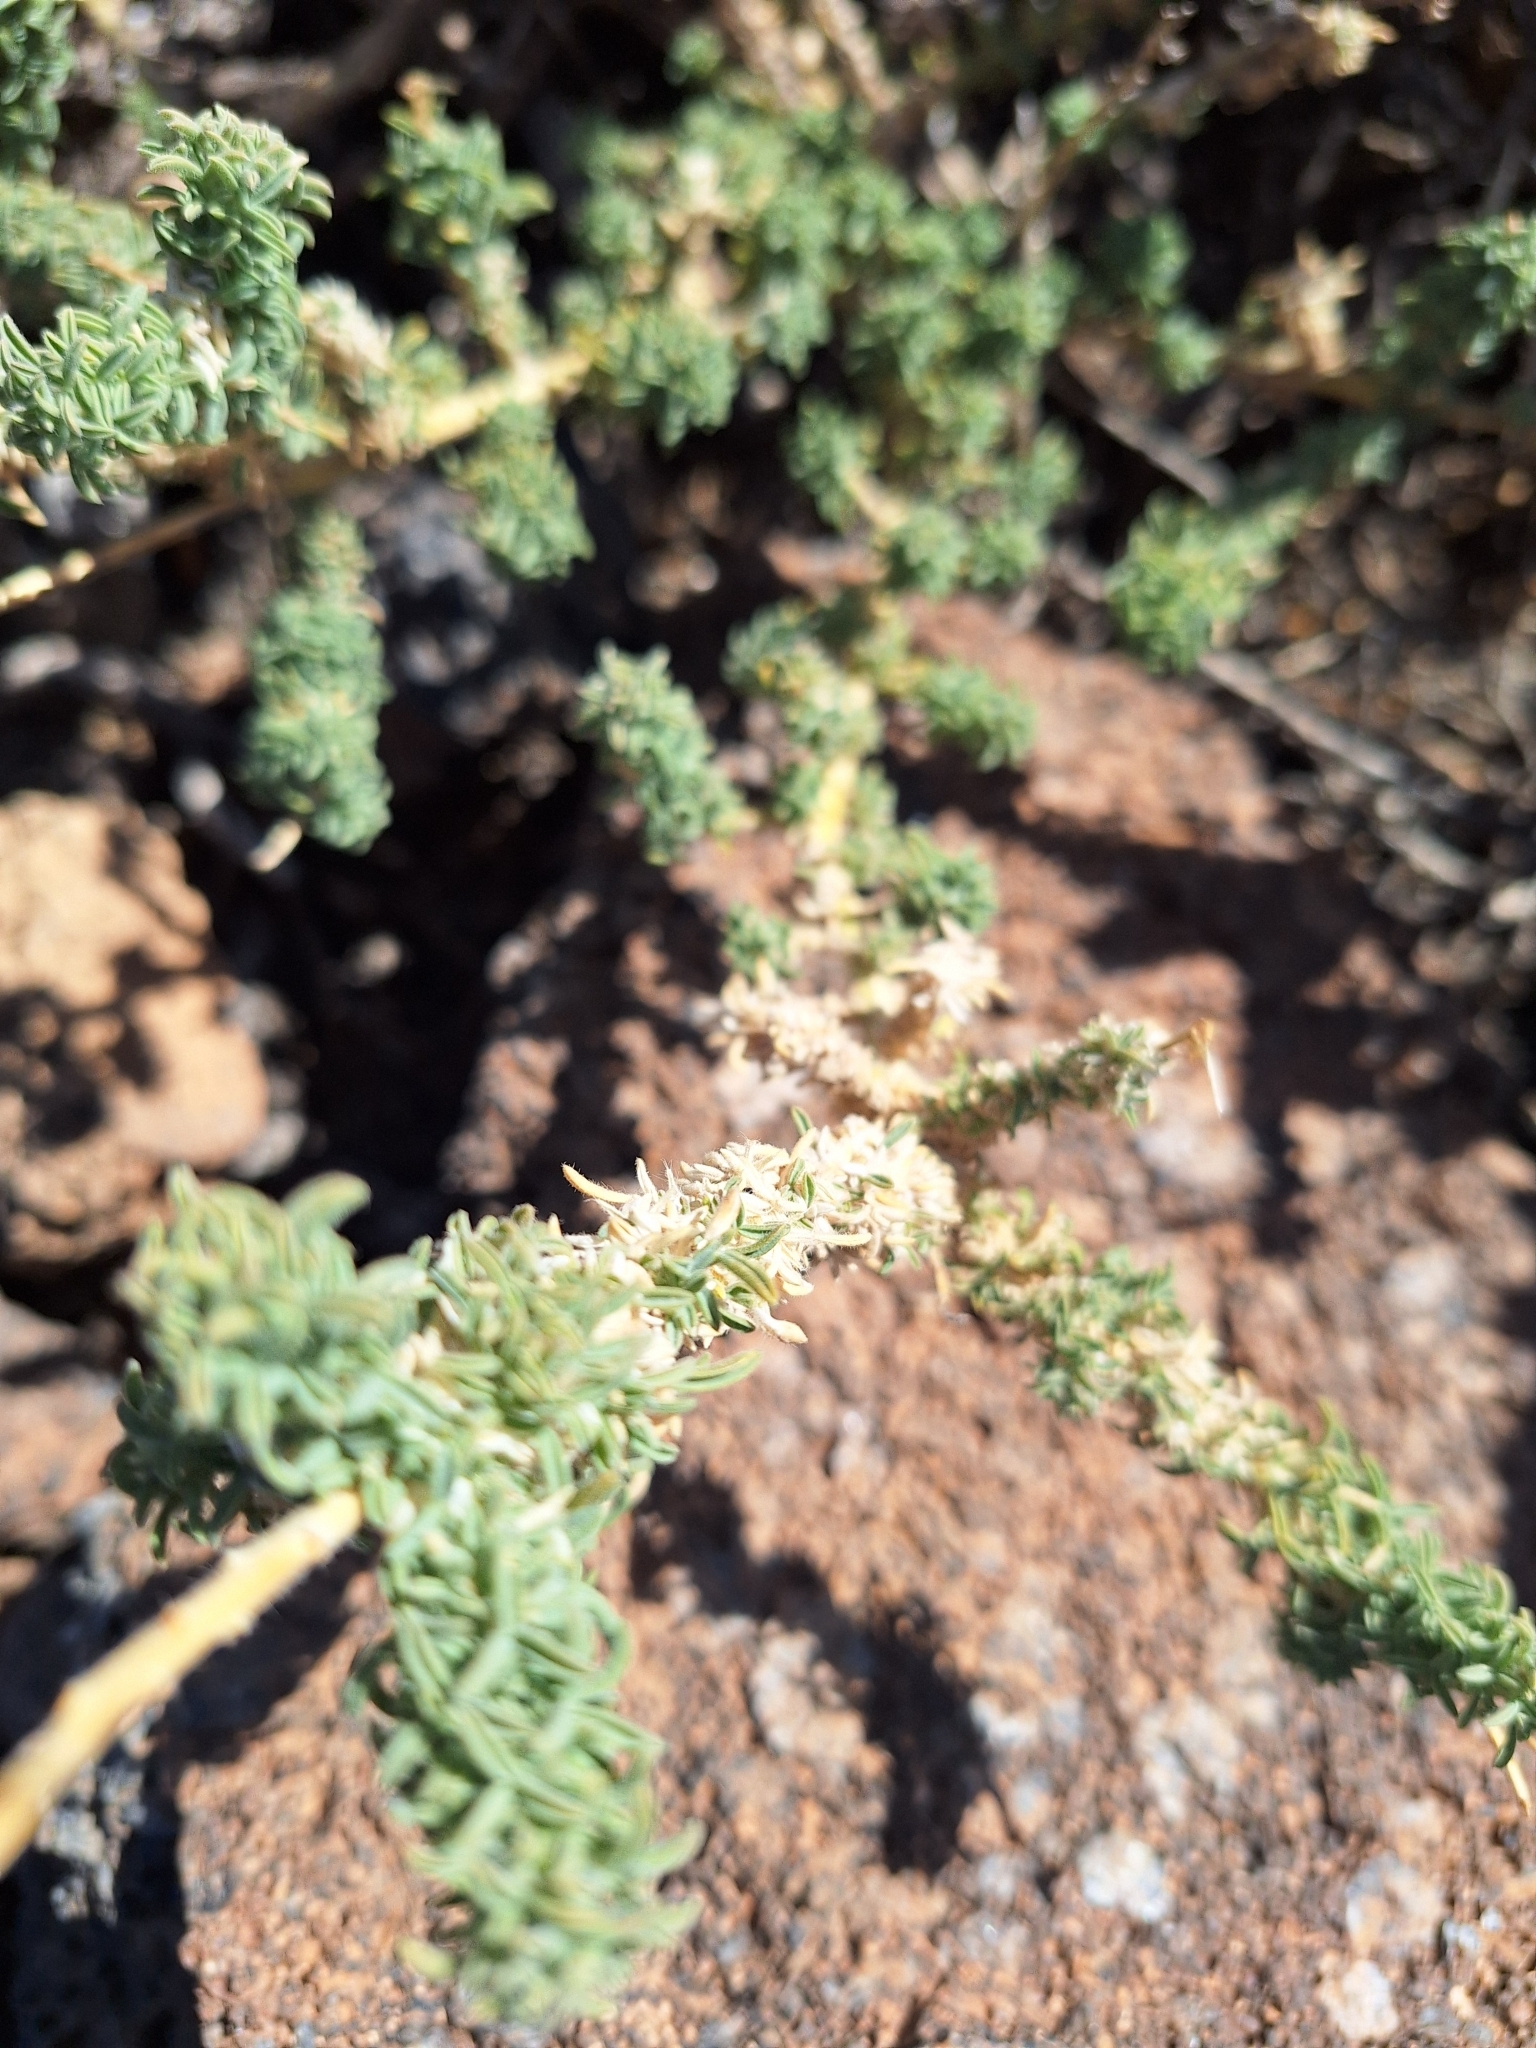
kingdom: Plantae
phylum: Tracheophyta
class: Magnoliopsida
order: Fabales
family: Fabaceae
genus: Adenocarpus
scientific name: Adenocarpus viscosus
